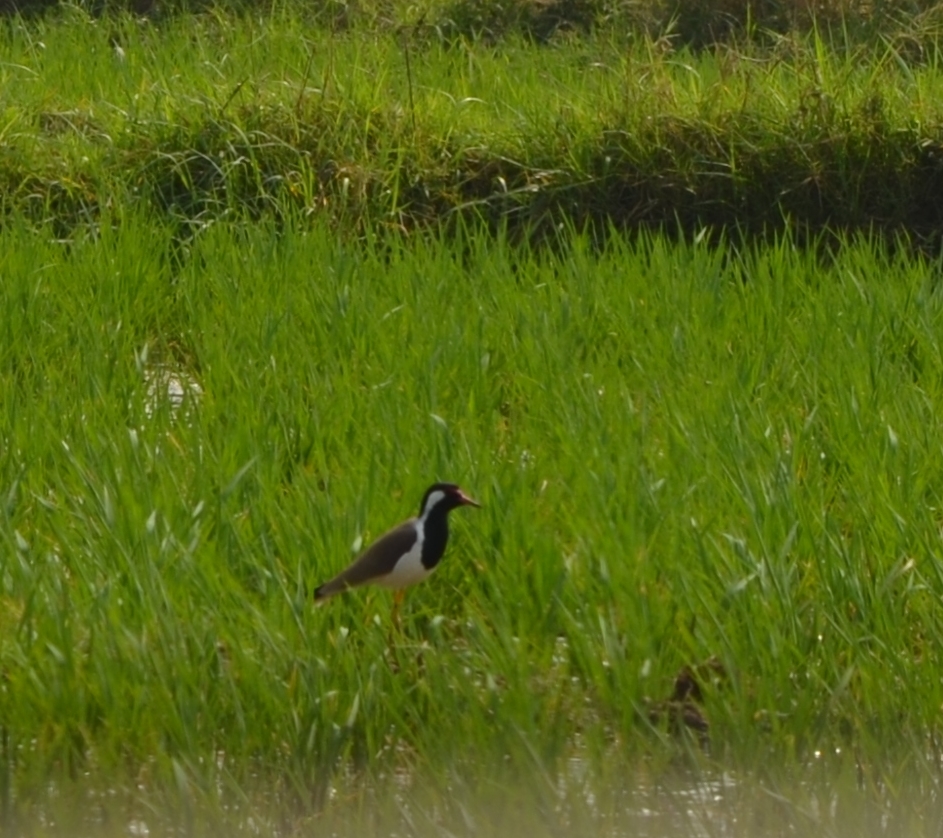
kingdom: Animalia
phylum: Chordata
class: Aves
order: Charadriiformes
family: Charadriidae
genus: Vanellus
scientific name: Vanellus indicus
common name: Red-wattled lapwing
